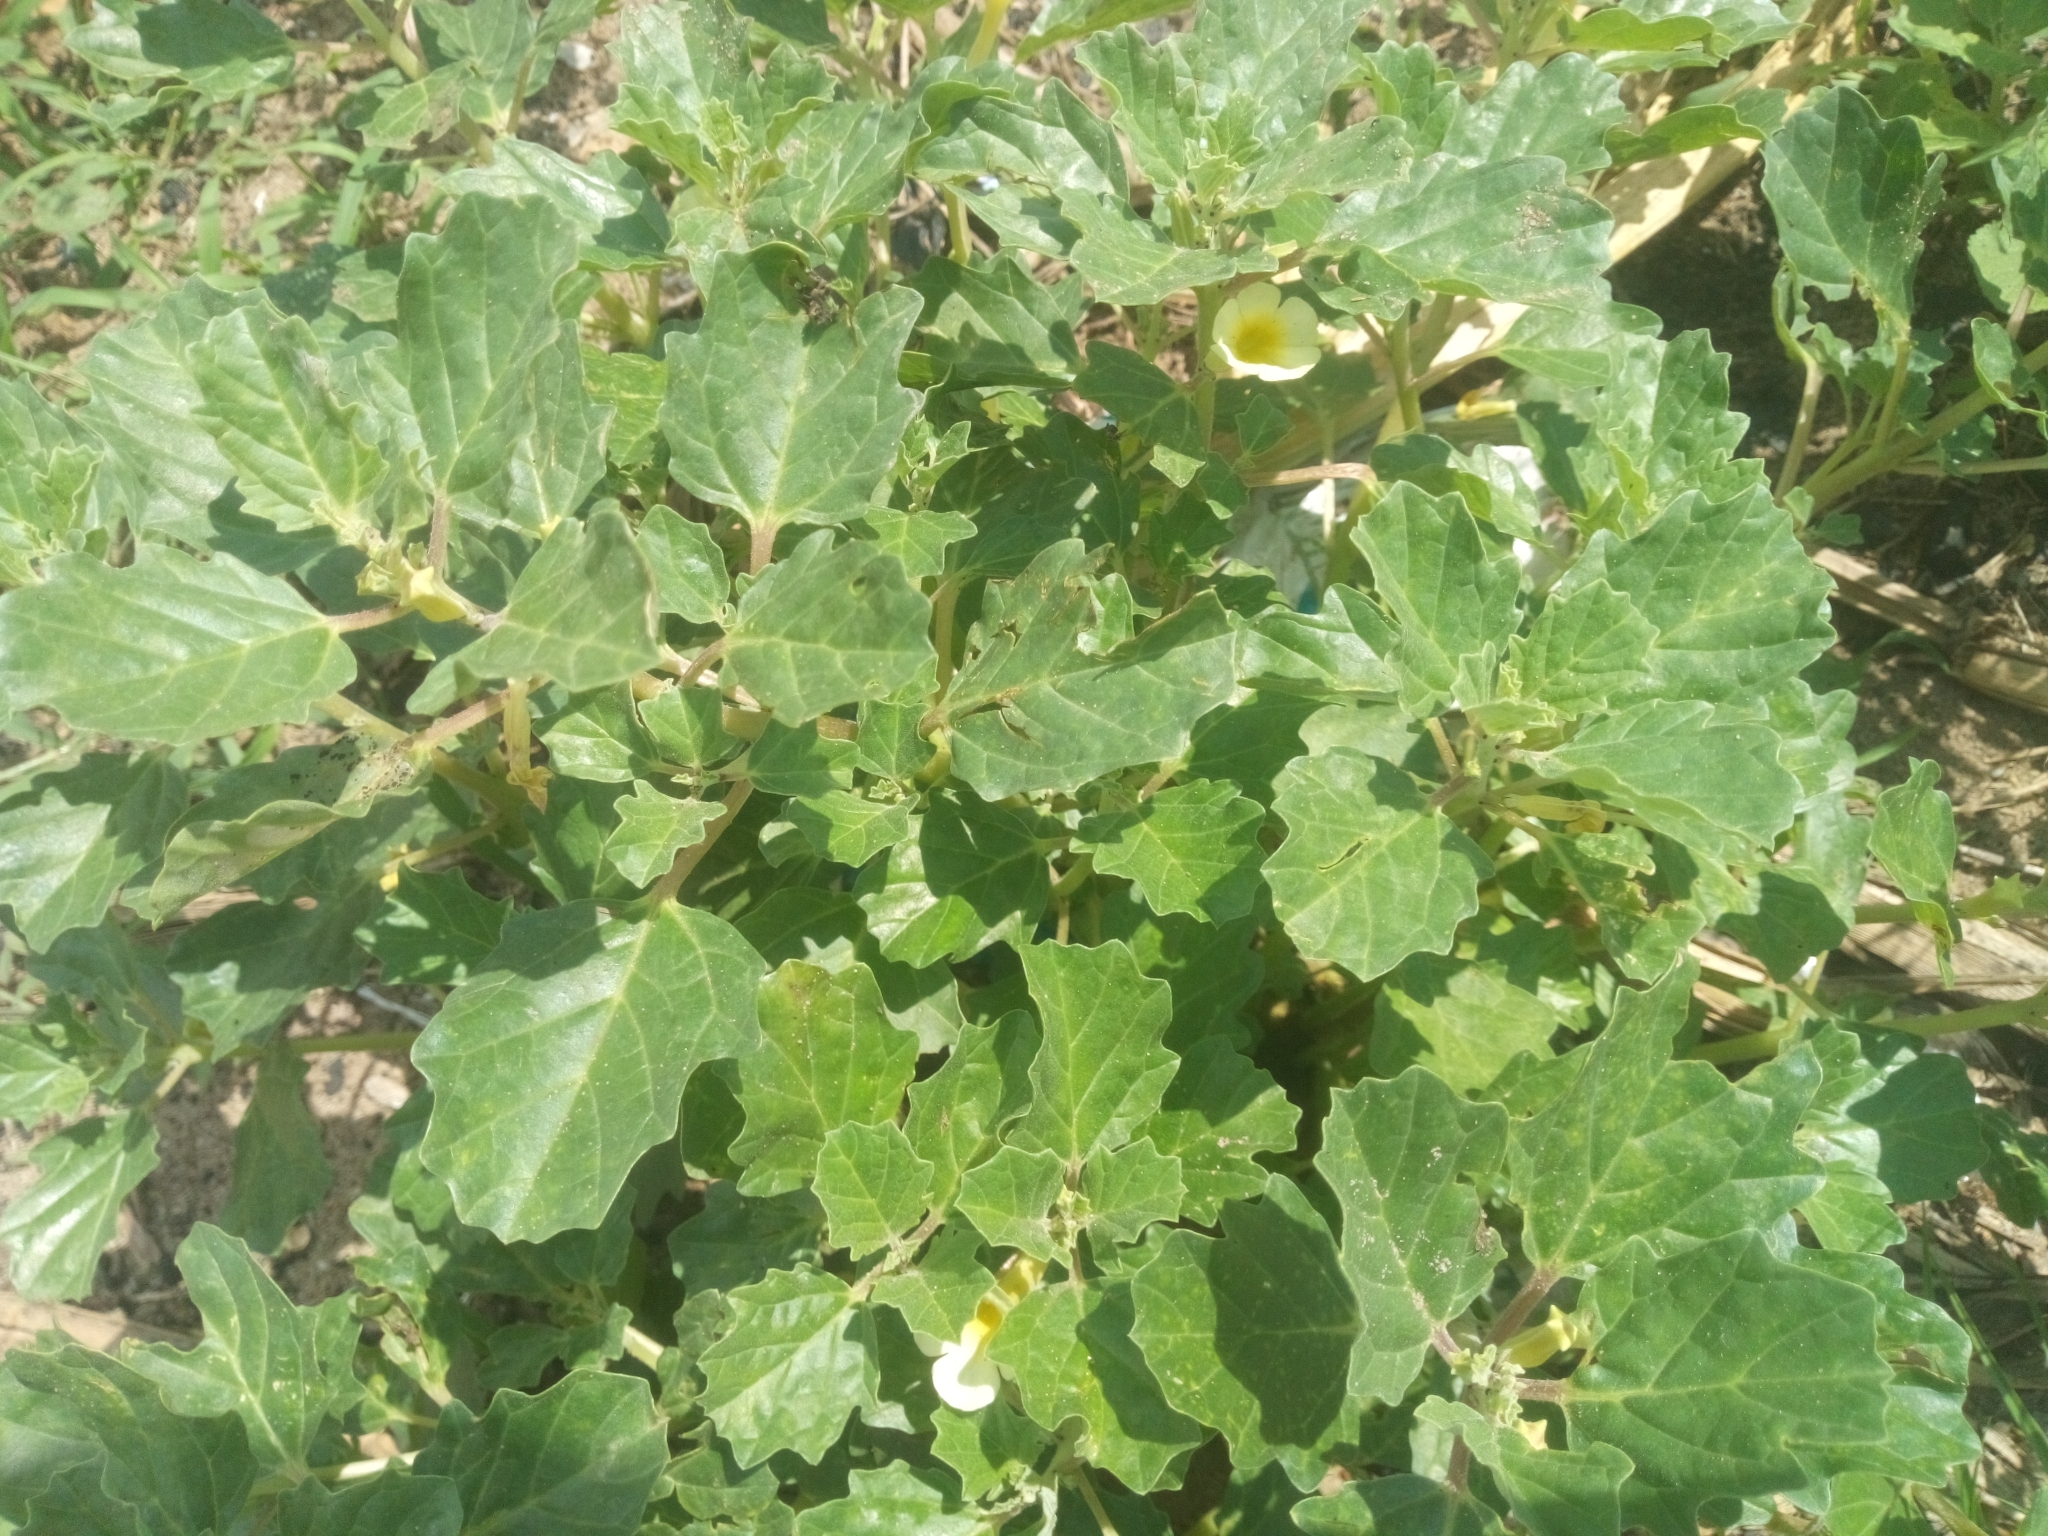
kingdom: Plantae
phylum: Tracheophyta
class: Magnoliopsida
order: Lamiales
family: Pedaliaceae
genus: Pedalium
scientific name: Pedalium murex
